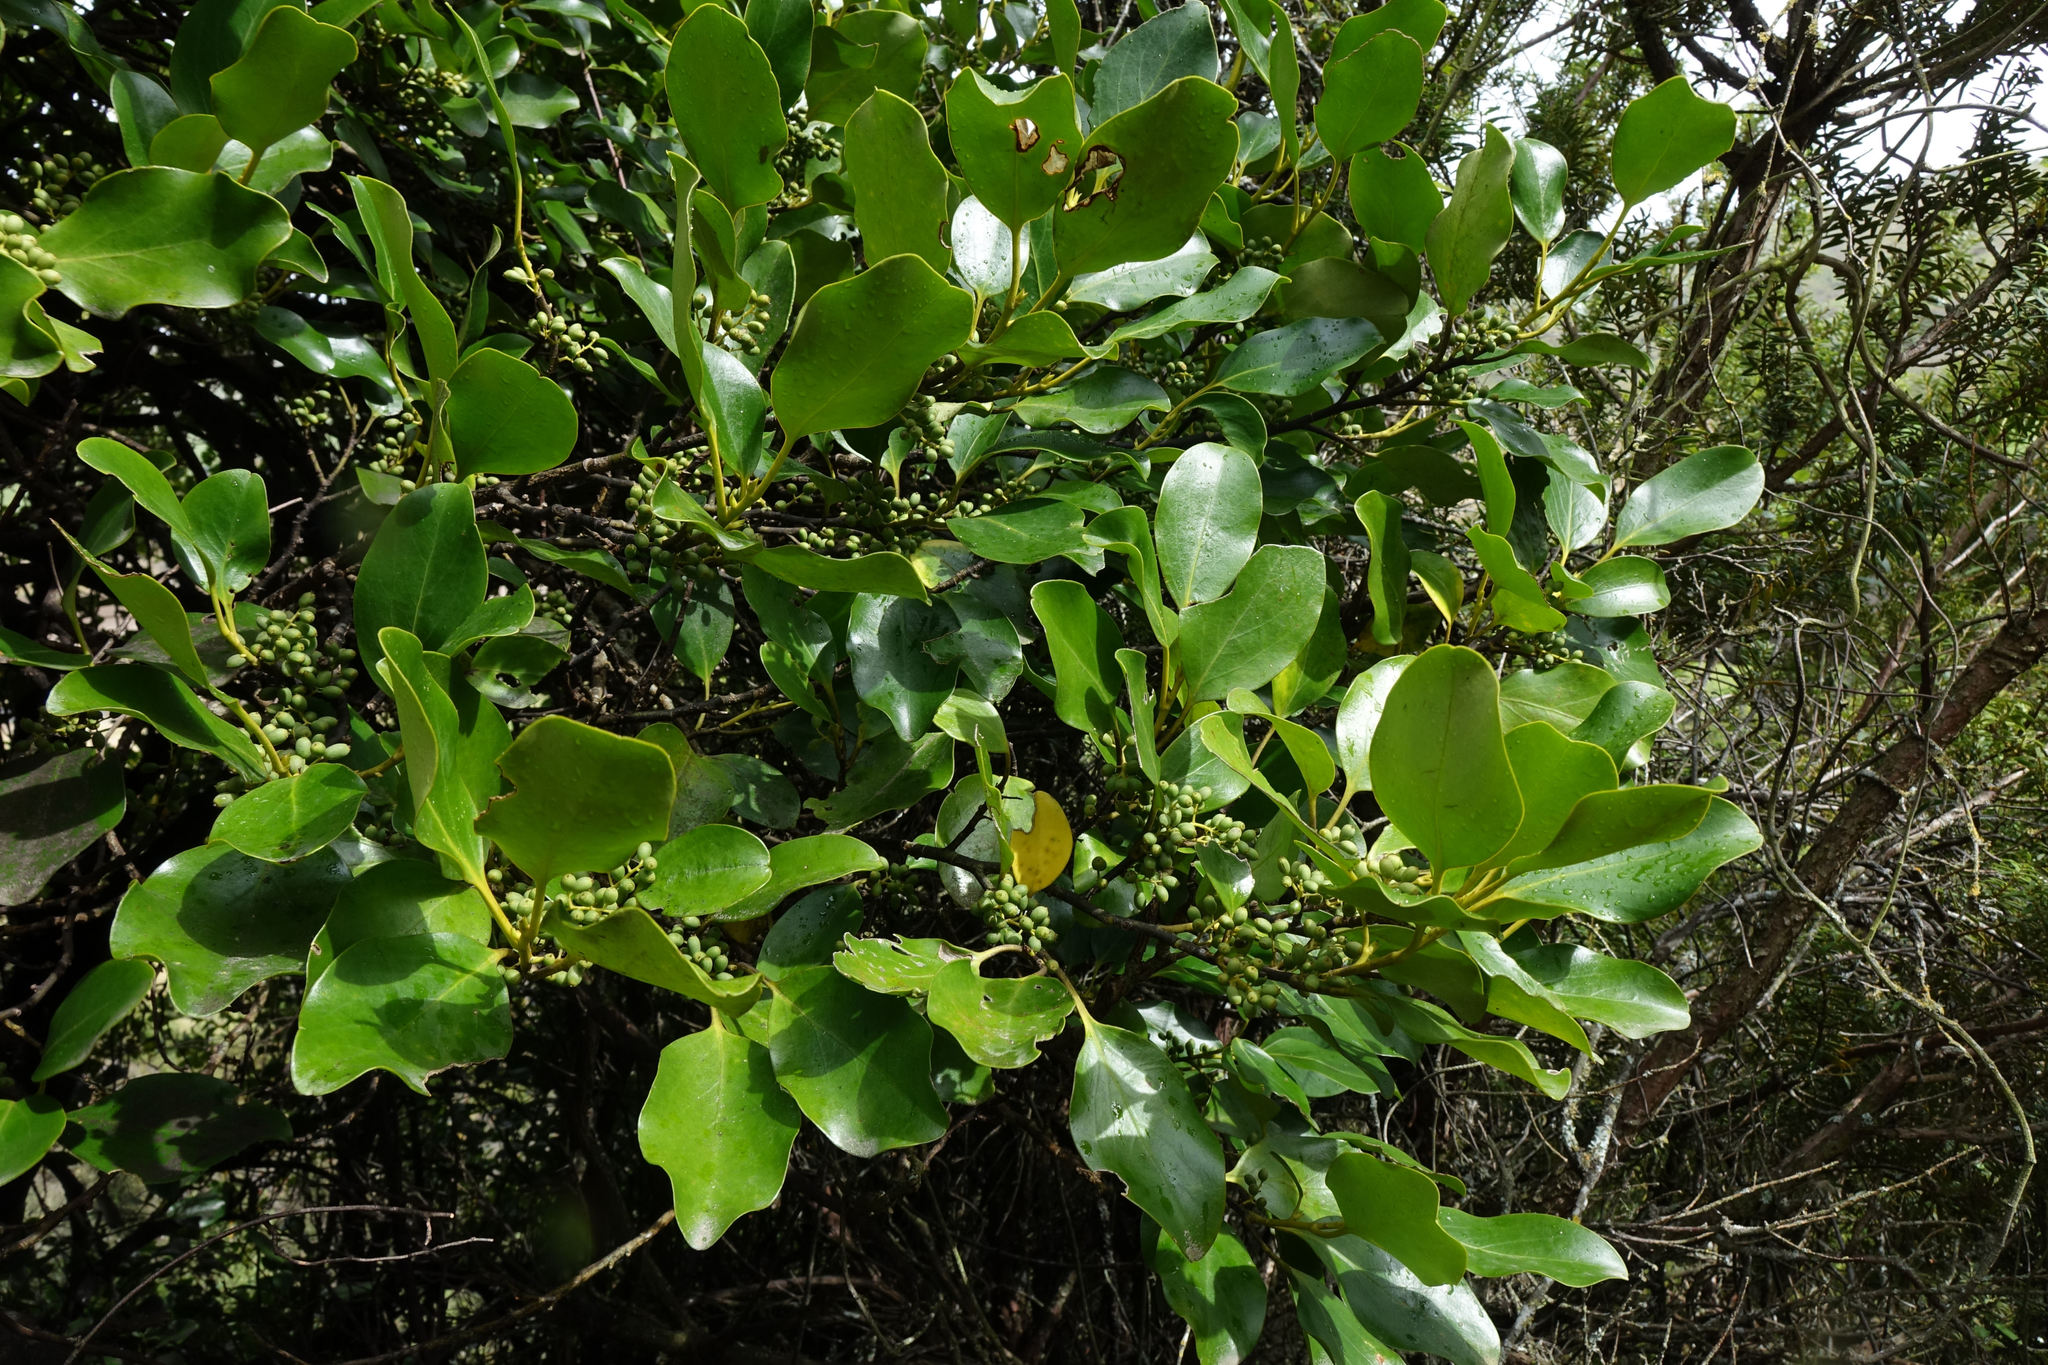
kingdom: Plantae
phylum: Tracheophyta
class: Magnoliopsida
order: Apiales
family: Griseliniaceae
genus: Griselinia
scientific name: Griselinia littoralis
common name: New zealand broadleaf
